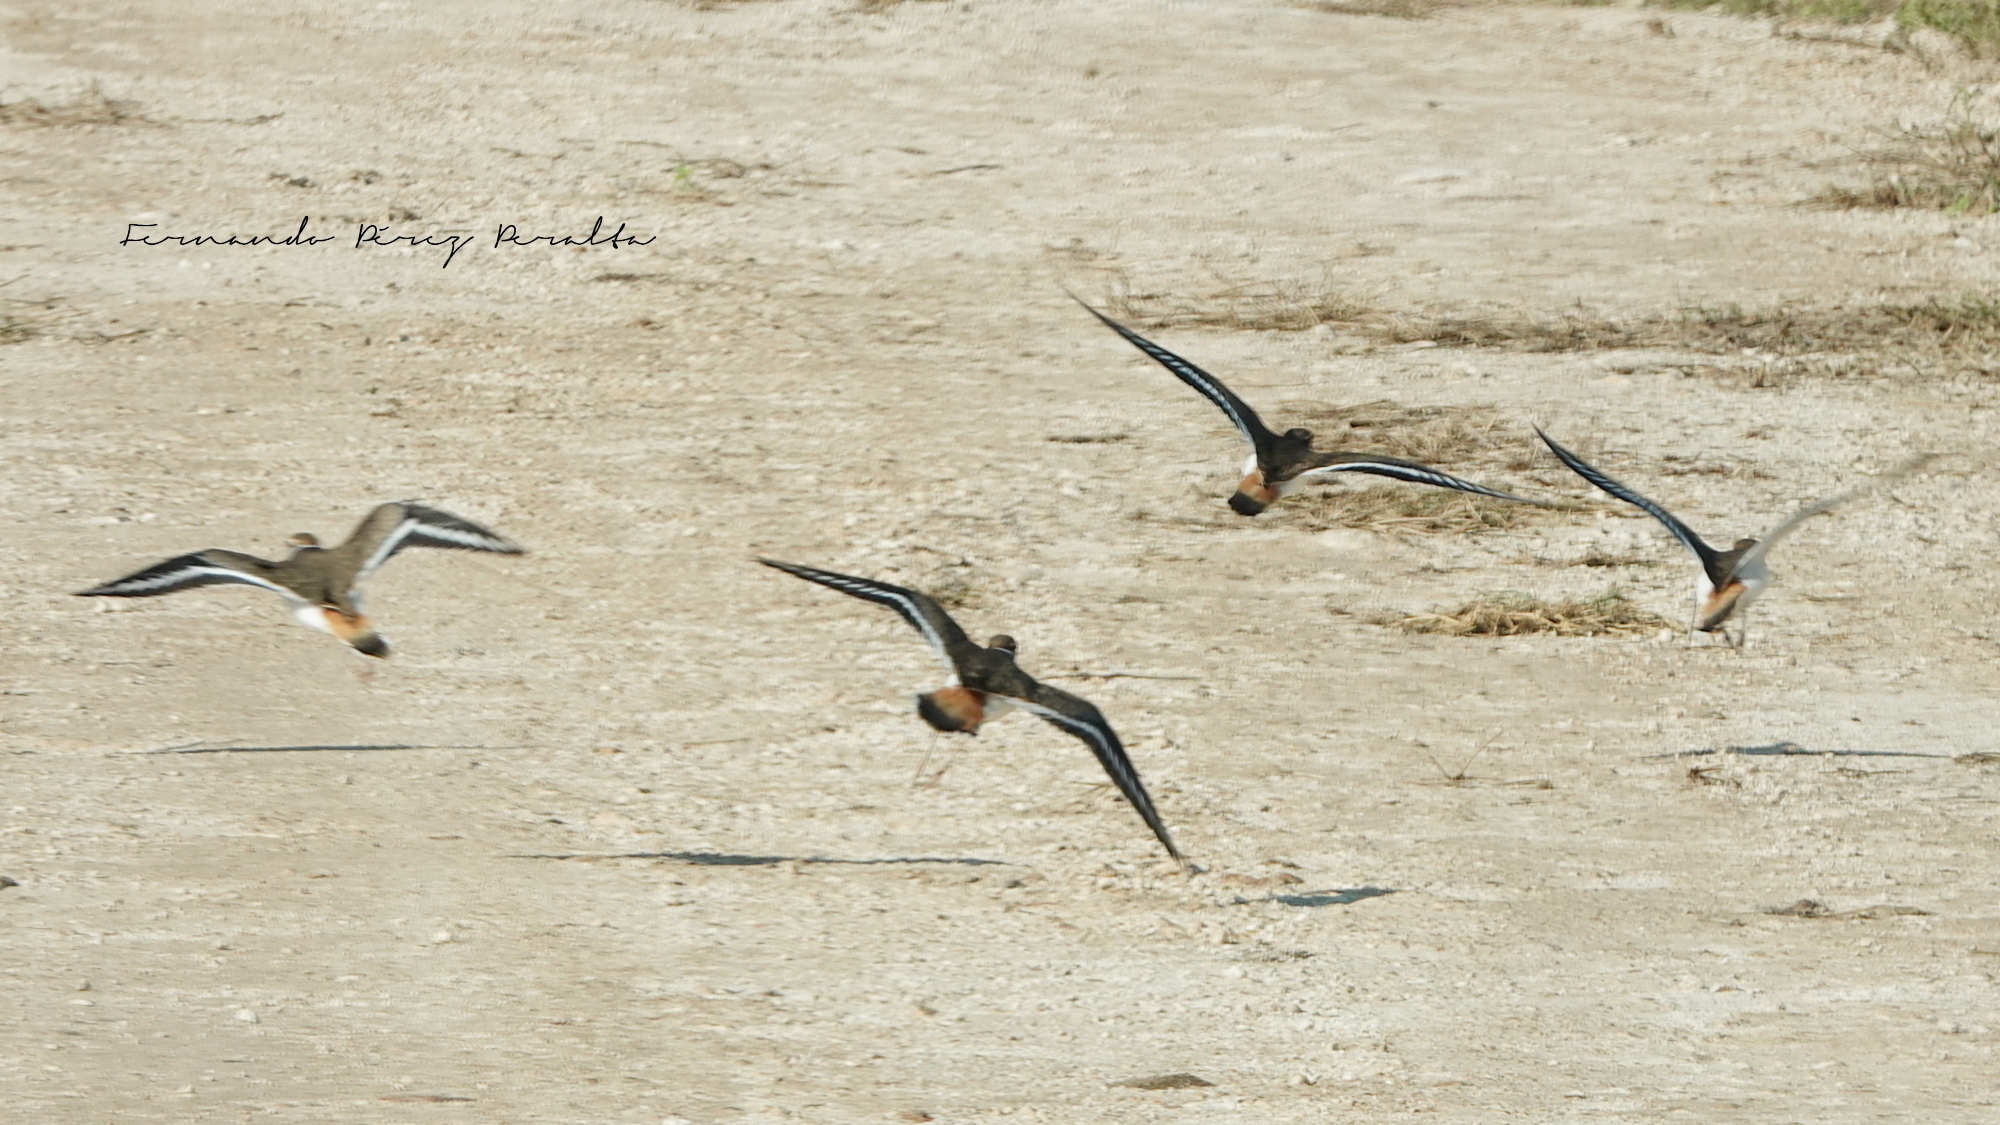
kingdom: Animalia
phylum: Chordata
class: Aves
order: Charadriiformes
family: Charadriidae
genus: Charadrius
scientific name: Charadrius vociferus
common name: Killdeer
